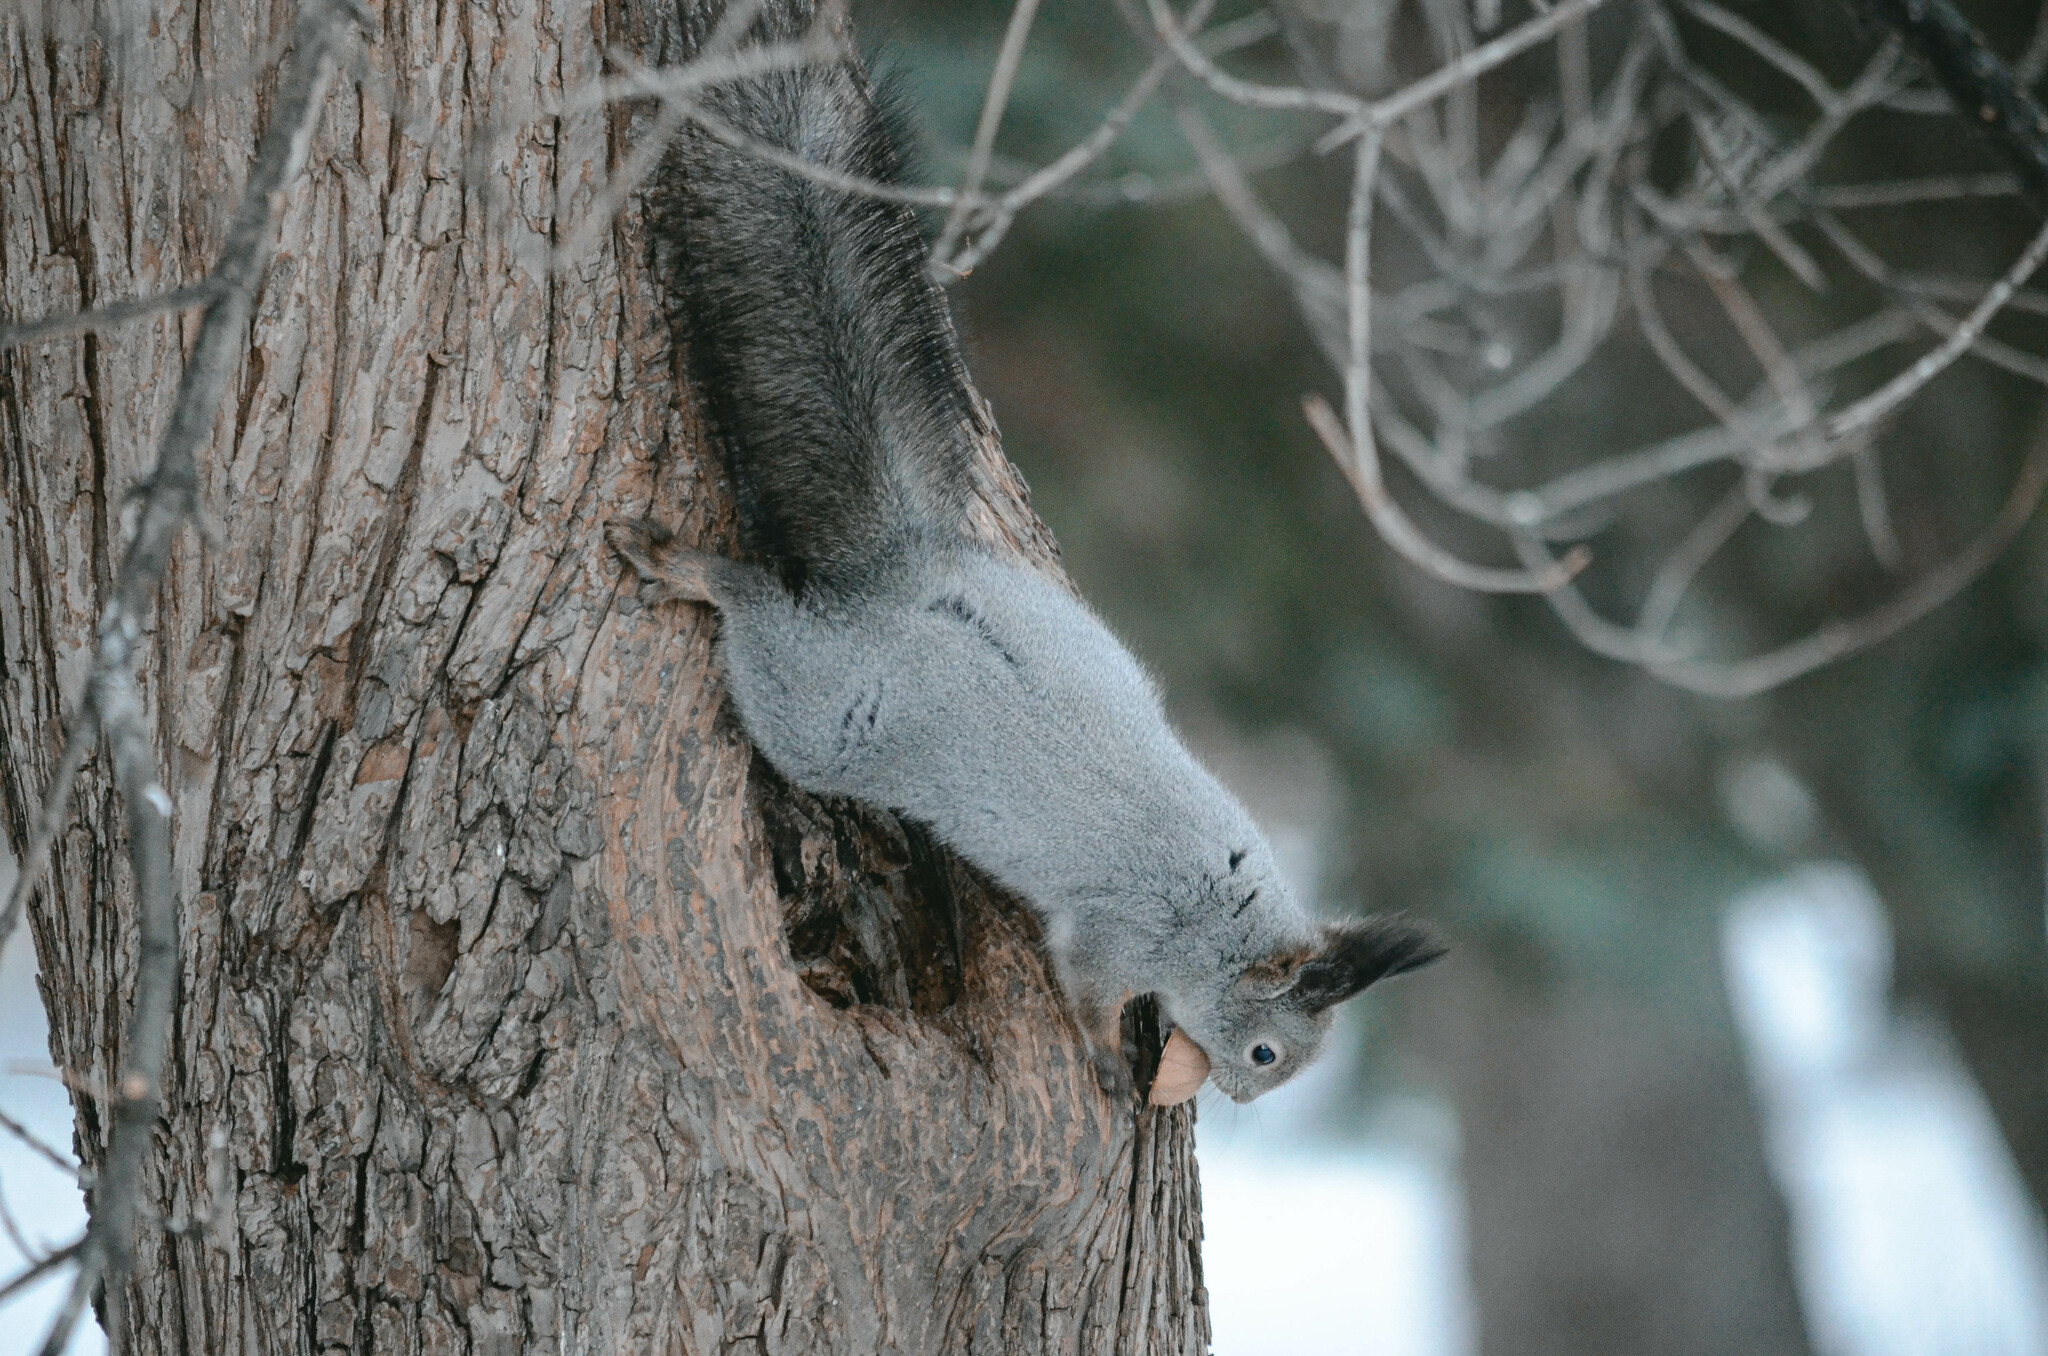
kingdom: Animalia
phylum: Chordata
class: Mammalia
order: Rodentia
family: Sciuridae
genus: Sciurus
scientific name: Sciurus vulgaris
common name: Eurasian red squirrel
